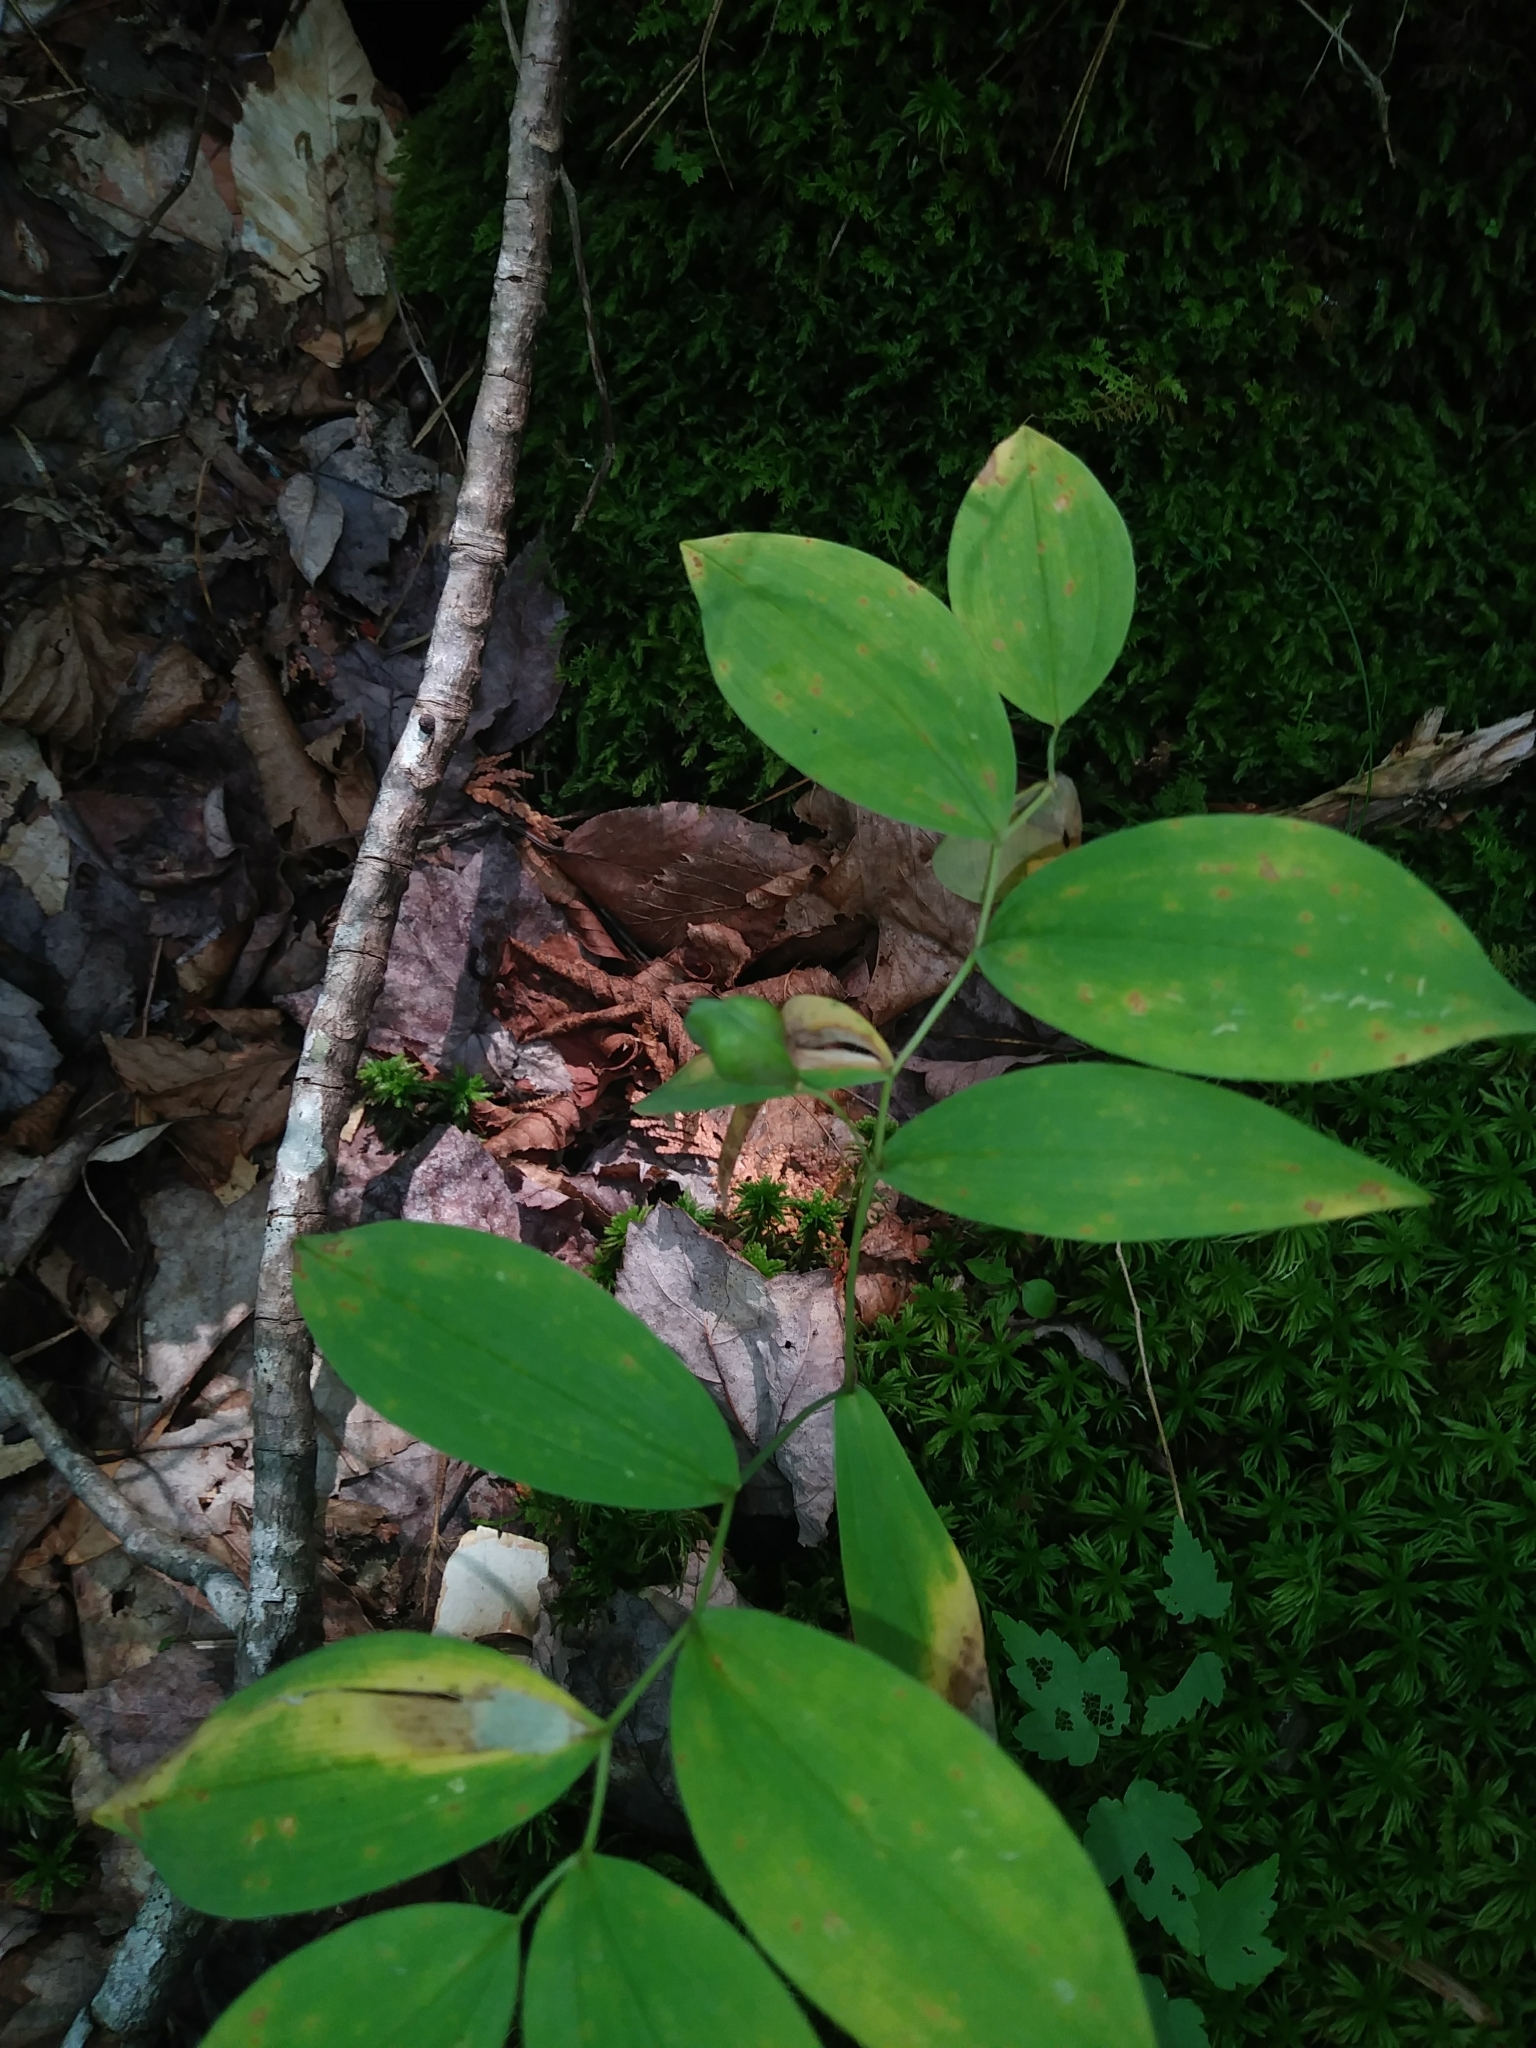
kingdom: Plantae
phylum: Tracheophyta
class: Liliopsida
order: Liliales
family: Colchicaceae
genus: Uvularia
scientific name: Uvularia sessilifolia
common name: Straw-lily
